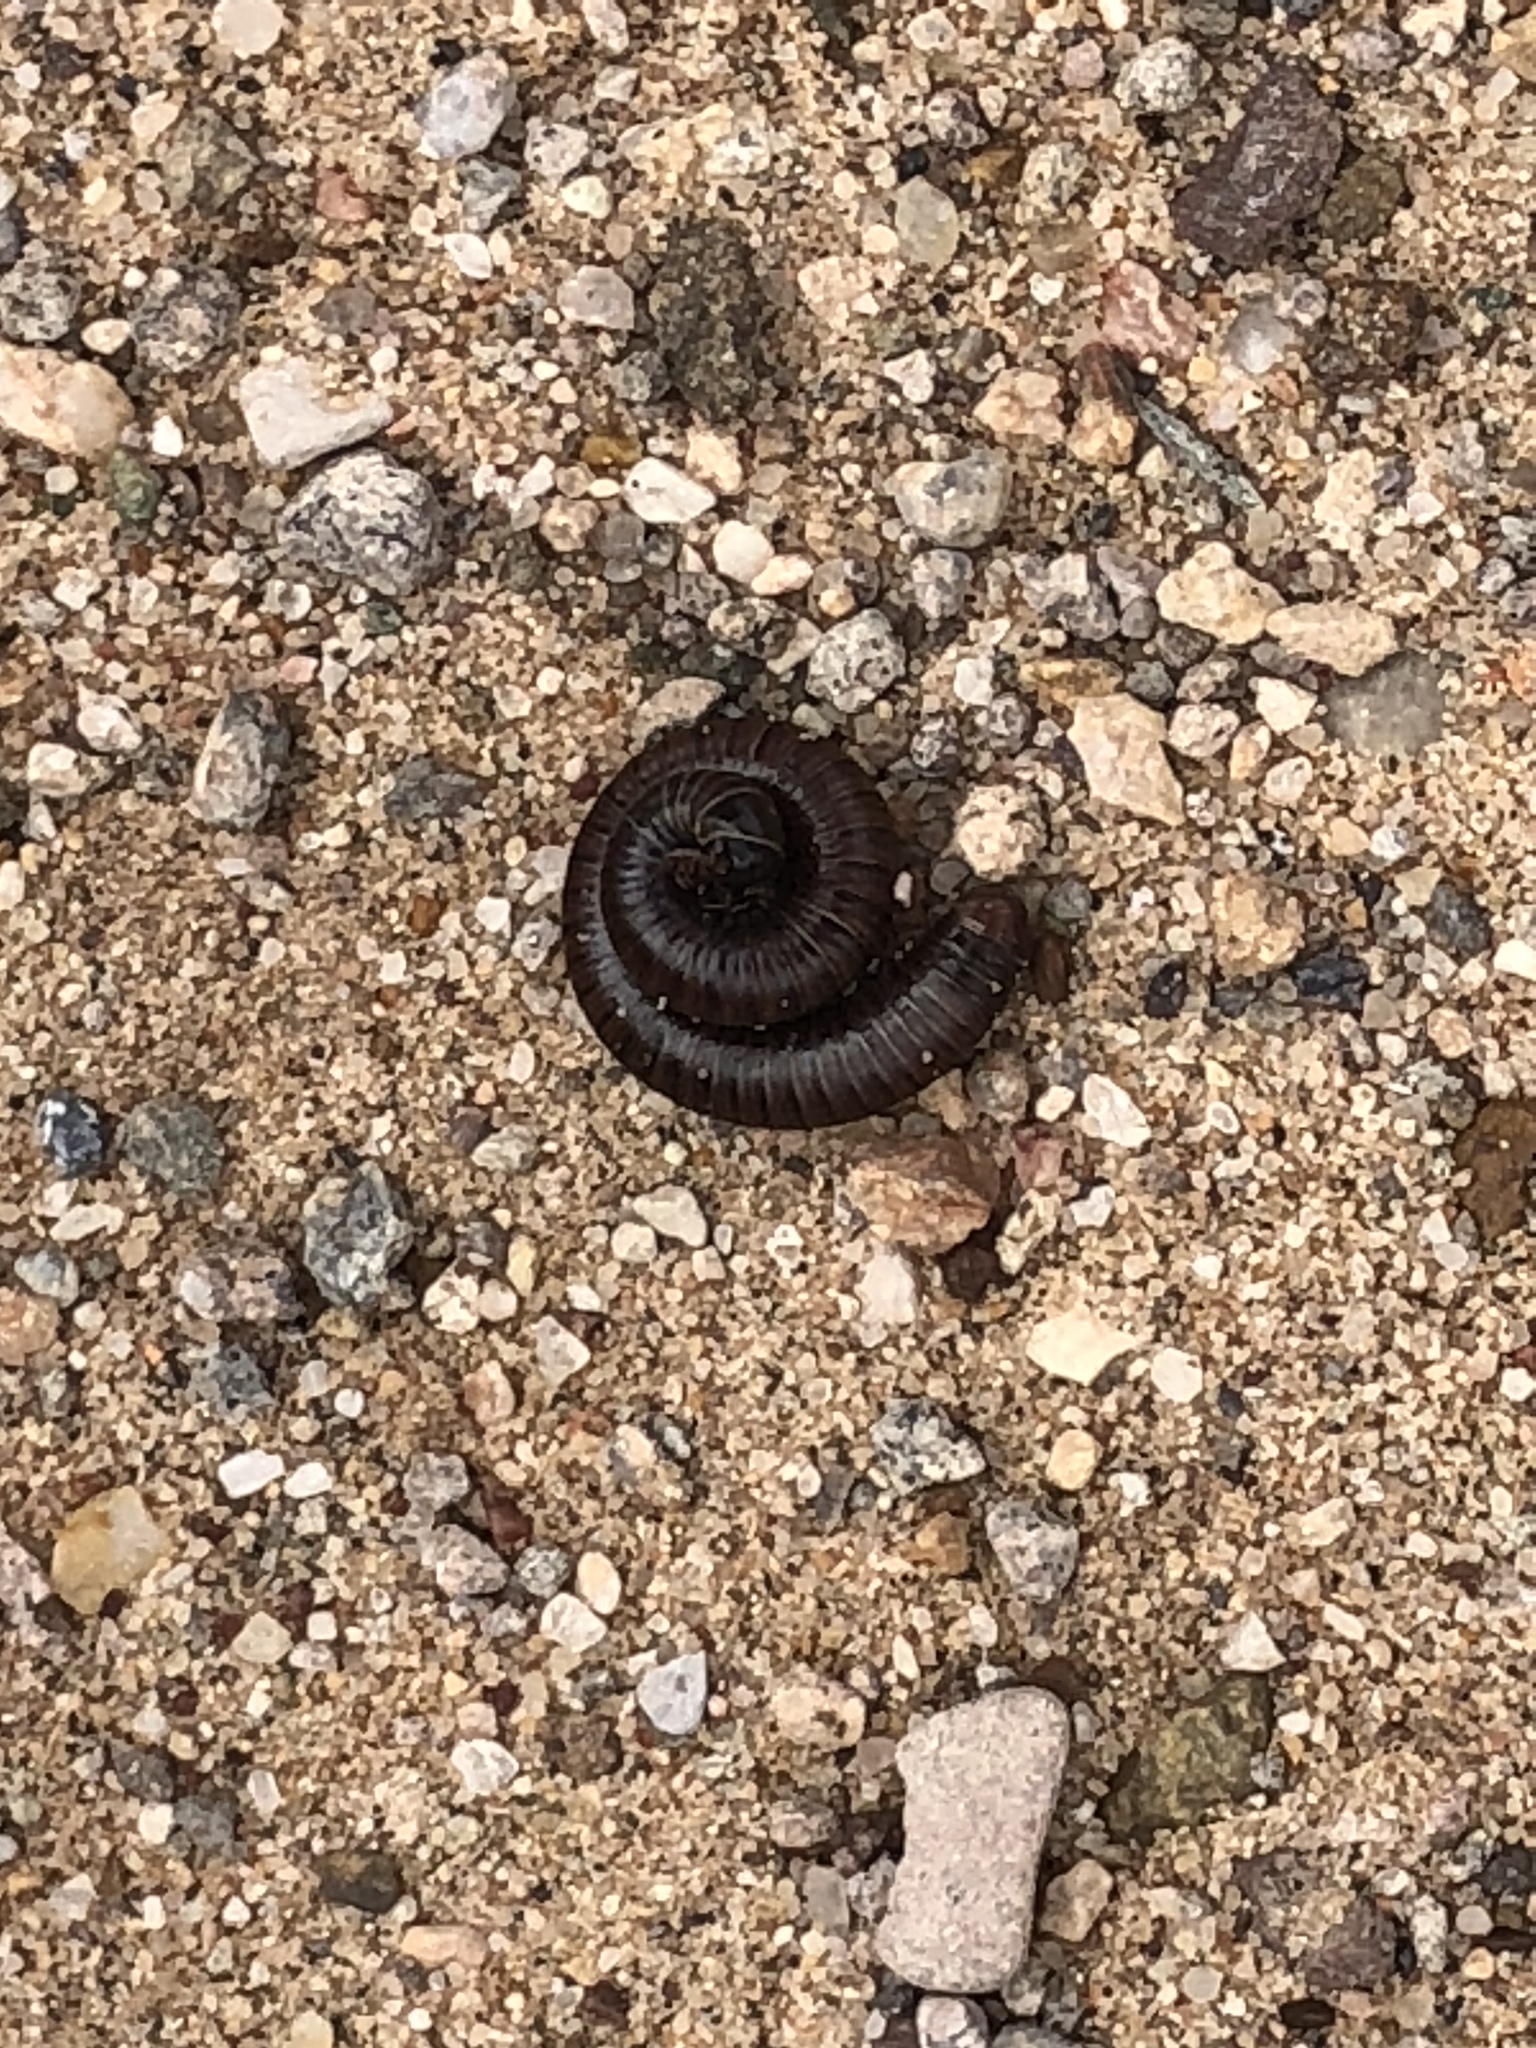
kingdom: Animalia
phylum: Arthropoda
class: Diplopoda
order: Spirostreptida
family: Spirostreptidae
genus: Orthoporus
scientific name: Orthoporus ornatus
